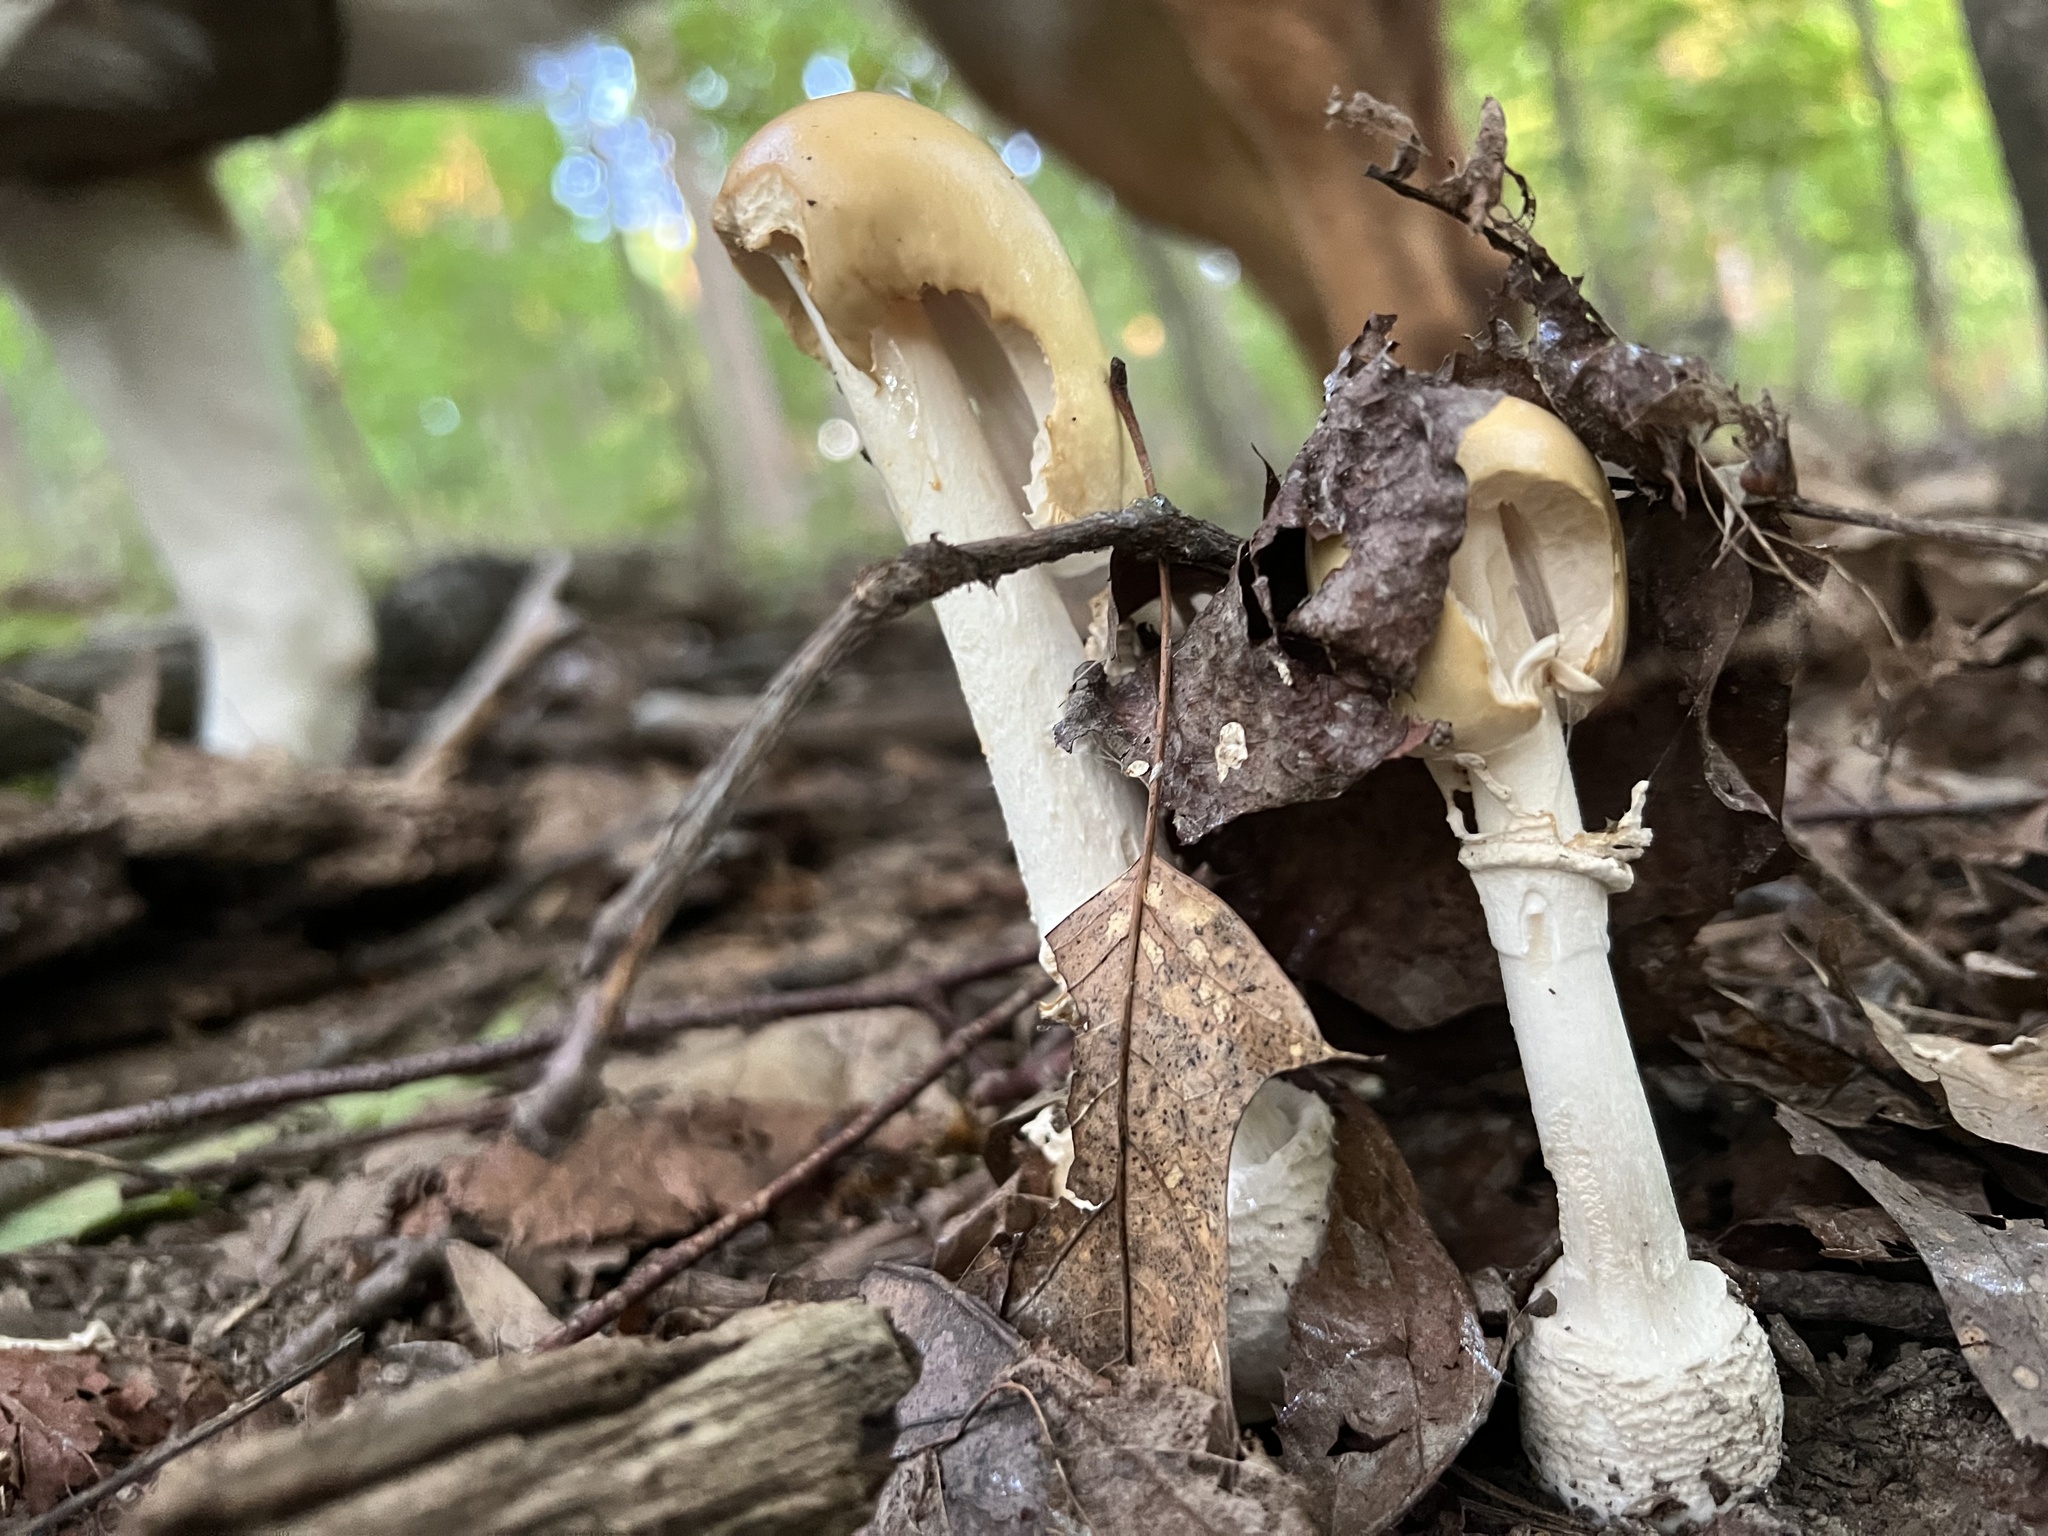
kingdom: Fungi
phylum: Basidiomycota
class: Agaricomycetes
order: Agaricales
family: Amanitaceae
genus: Amanita
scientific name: Amanita velatipes
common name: Great funnel-veil amanita
